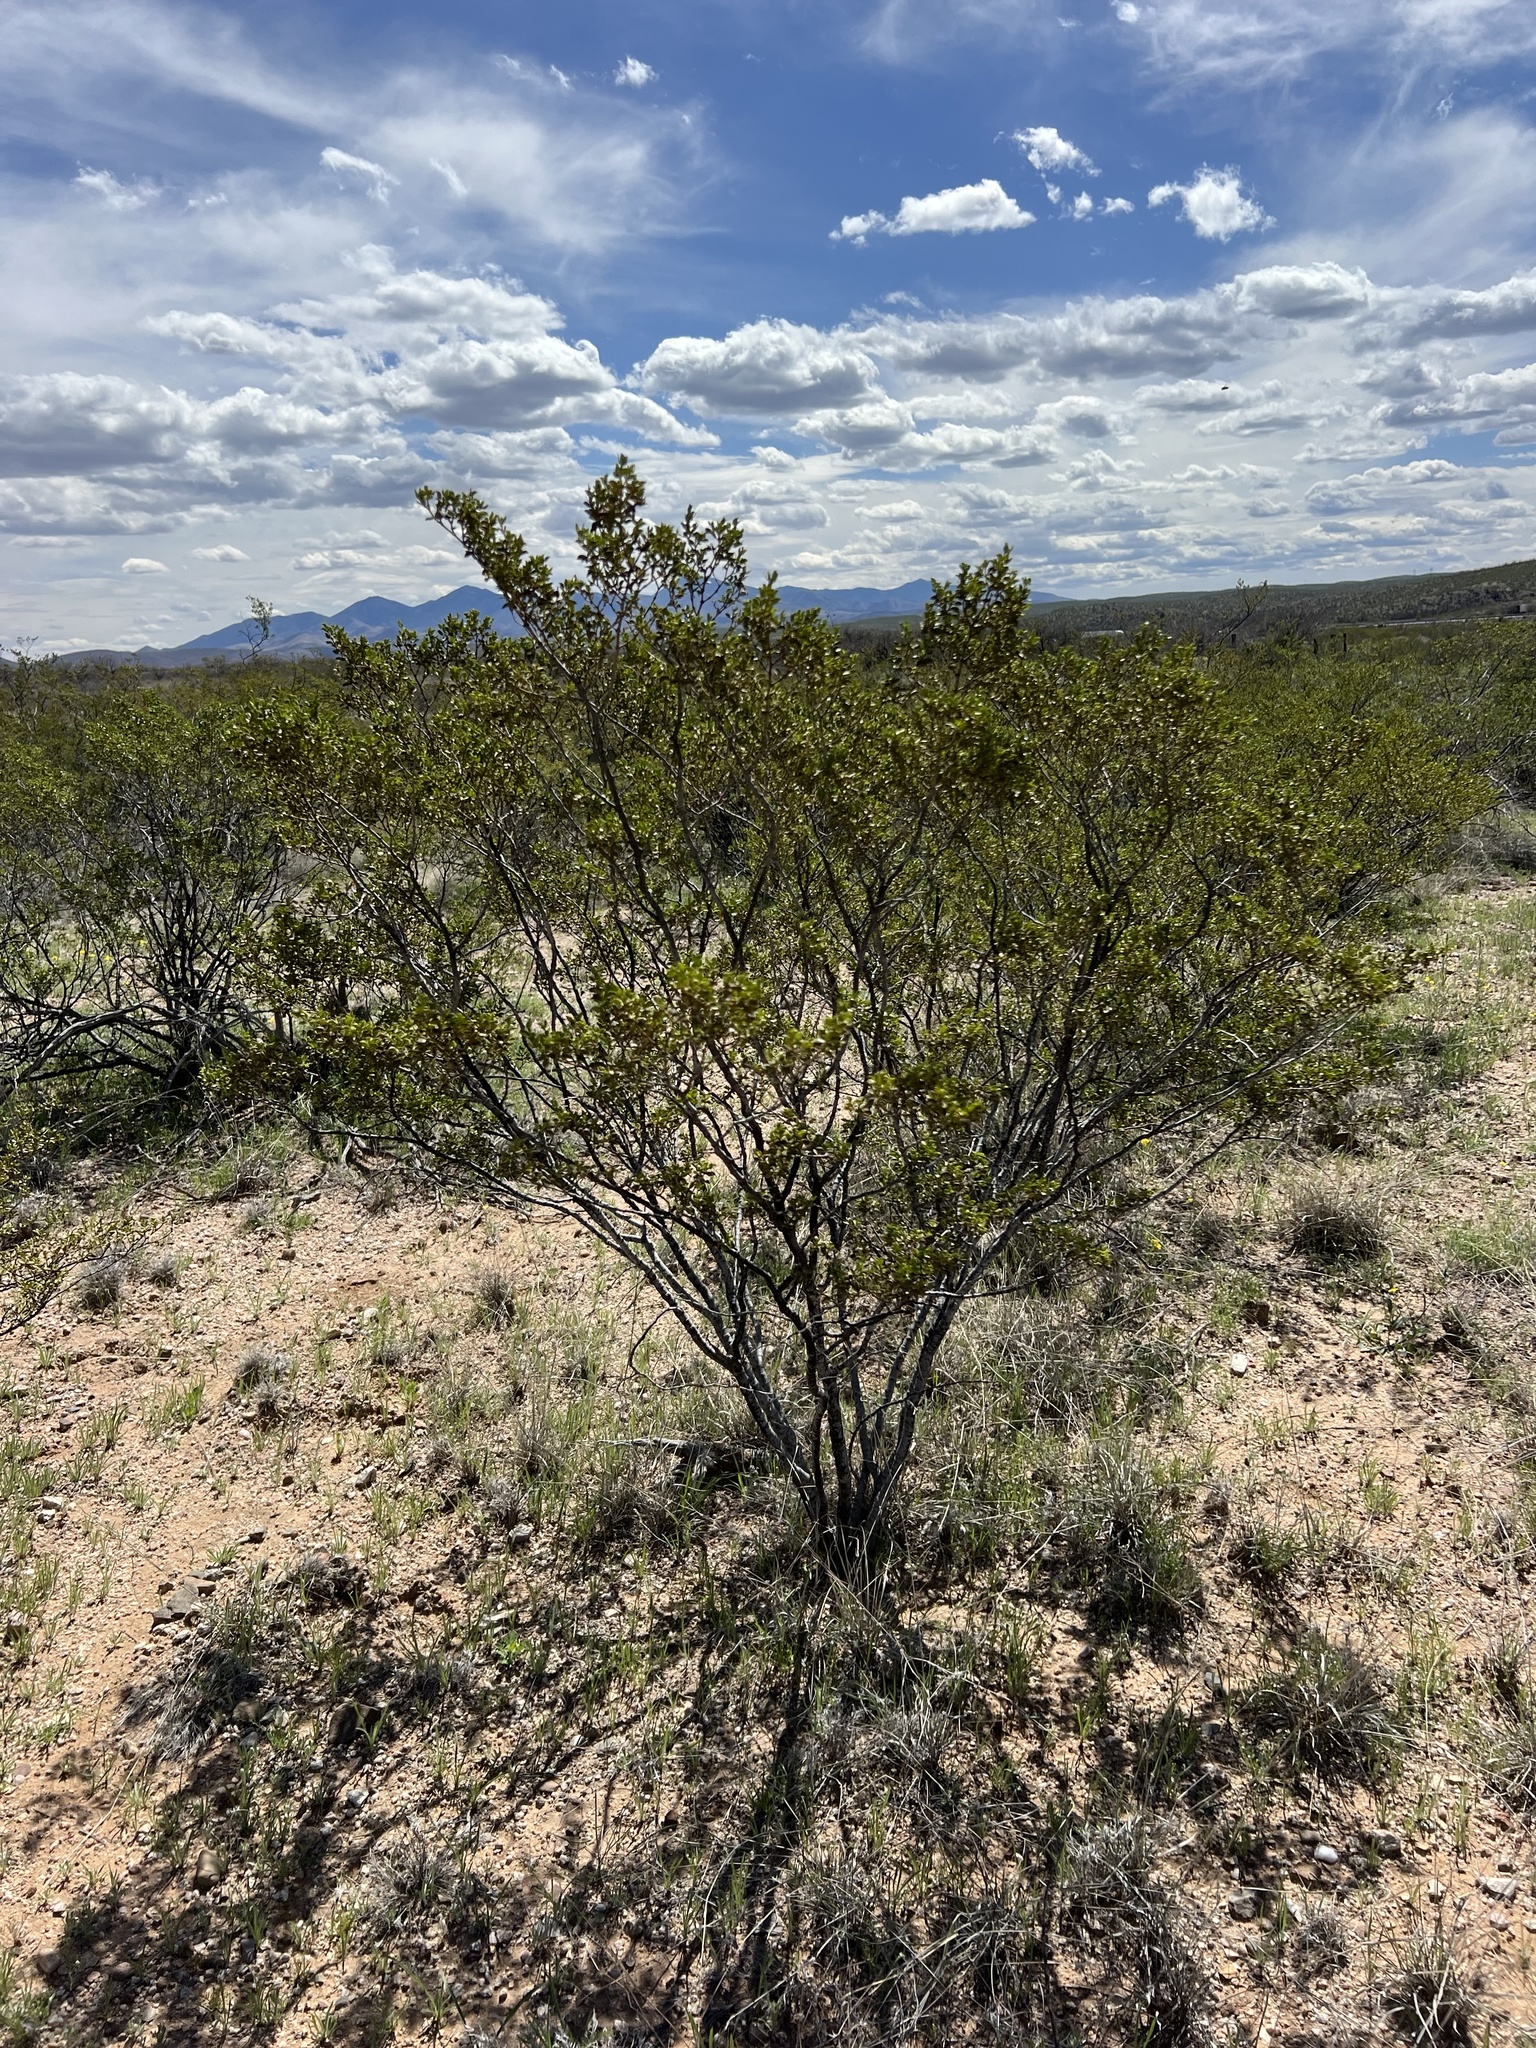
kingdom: Plantae
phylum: Tracheophyta
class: Magnoliopsida
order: Zygophyllales
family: Zygophyllaceae
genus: Larrea
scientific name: Larrea tridentata
